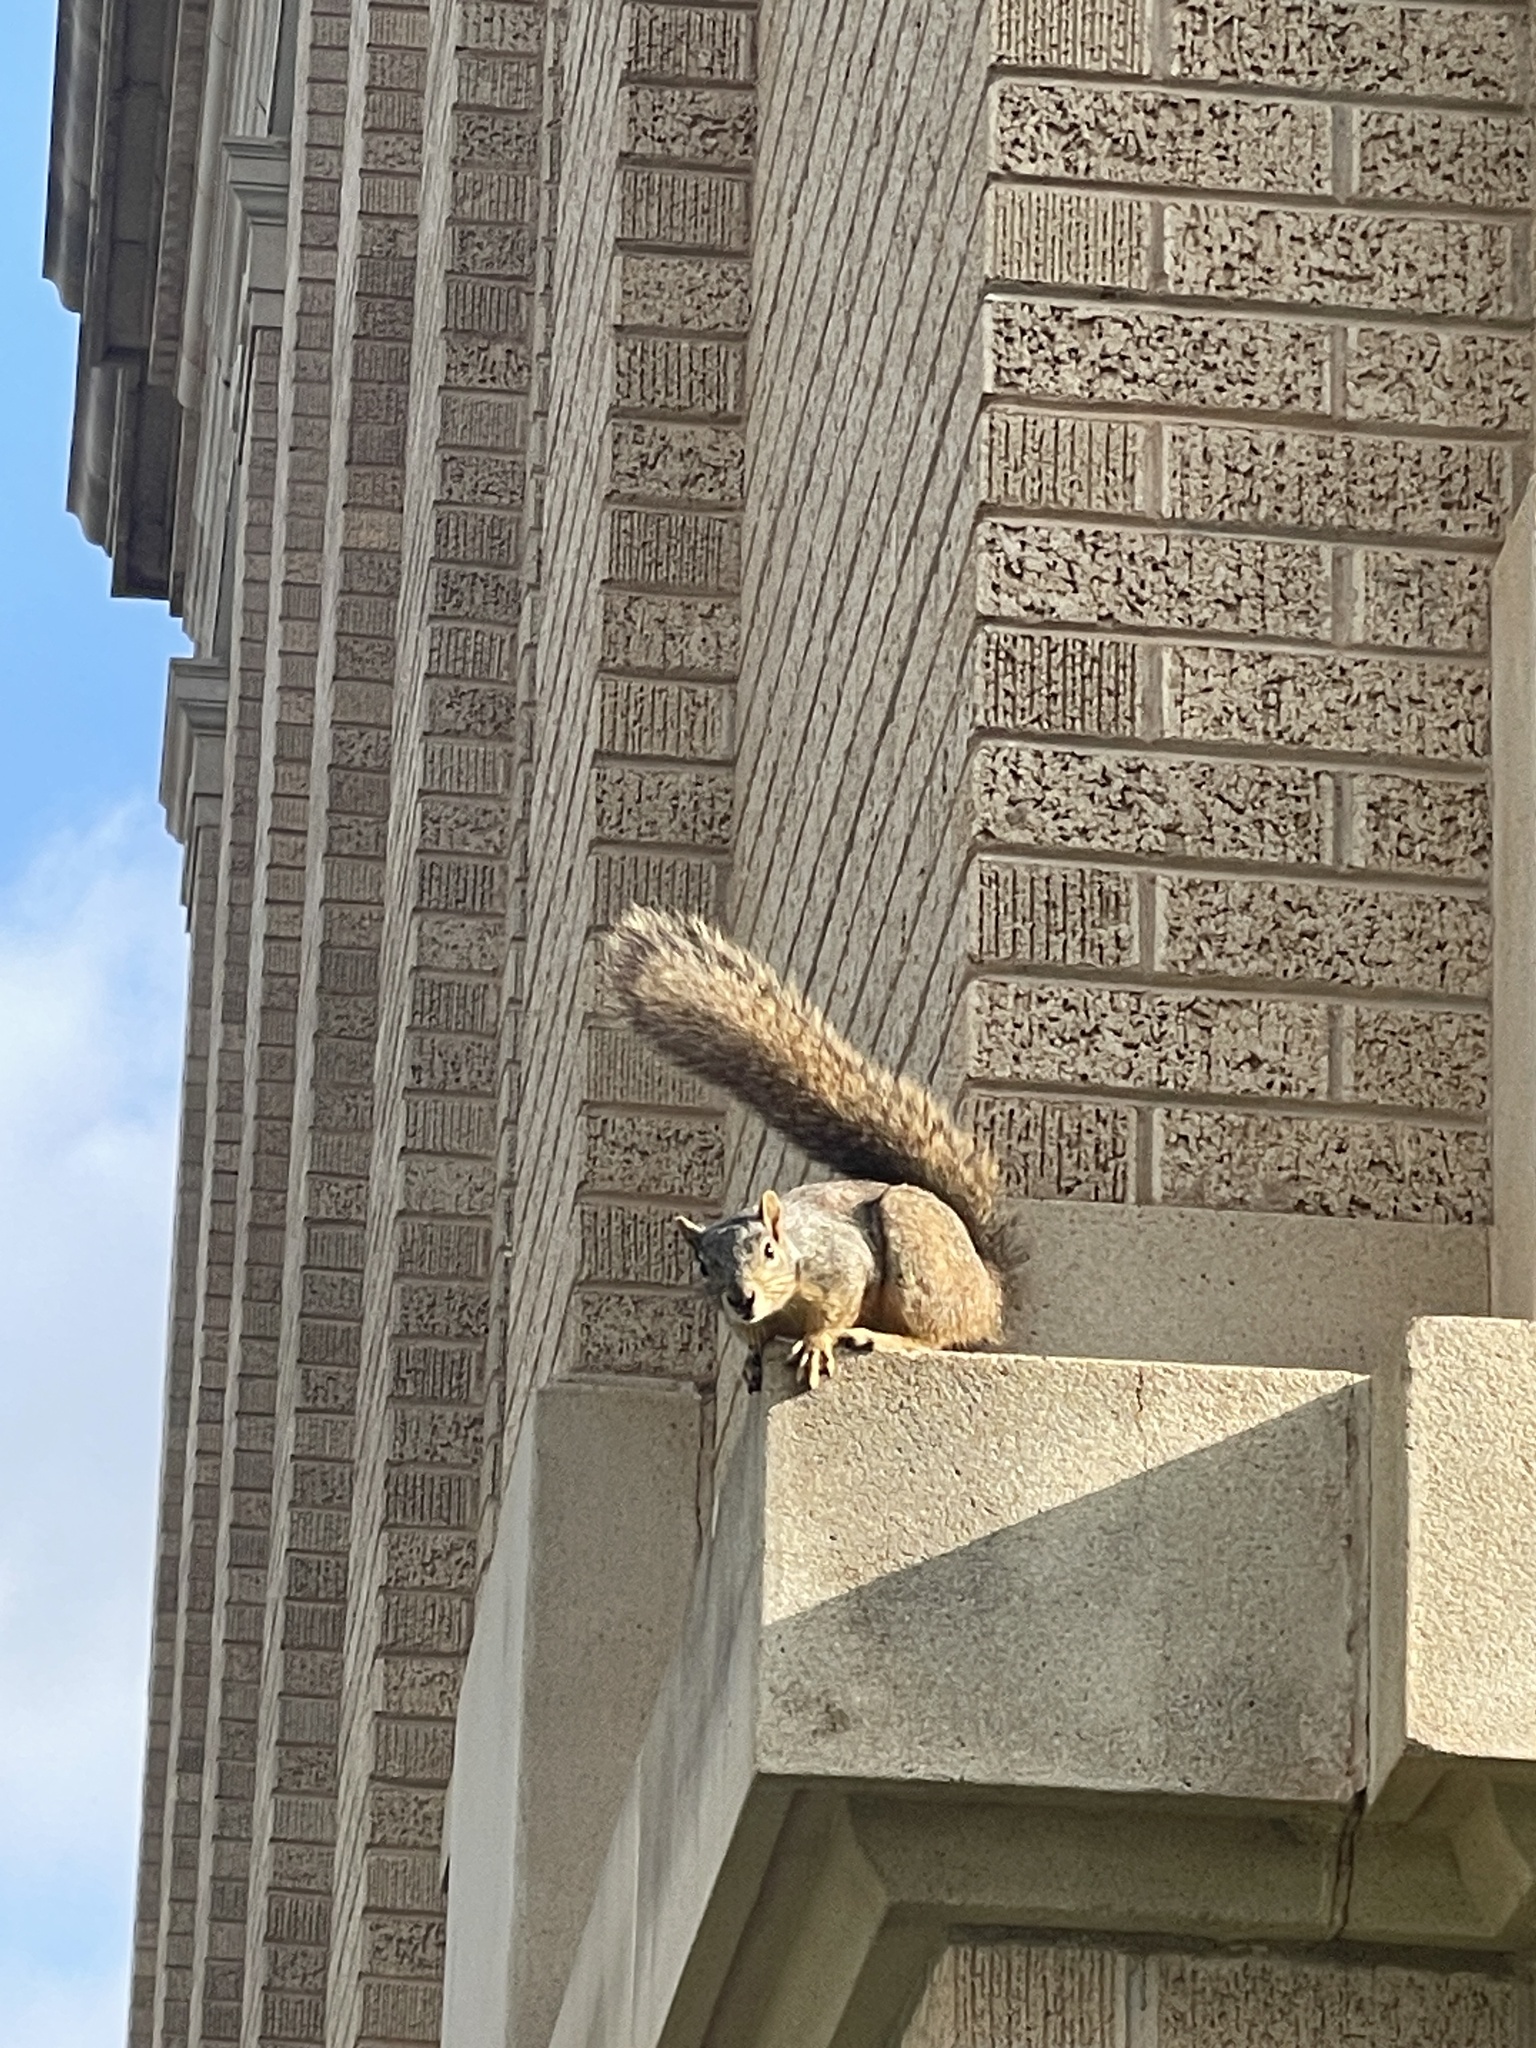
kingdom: Animalia
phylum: Chordata
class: Mammalia
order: Rodentia
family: Sciuridae
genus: Sciurus
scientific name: Sciurus niger
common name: Fox squirrel
